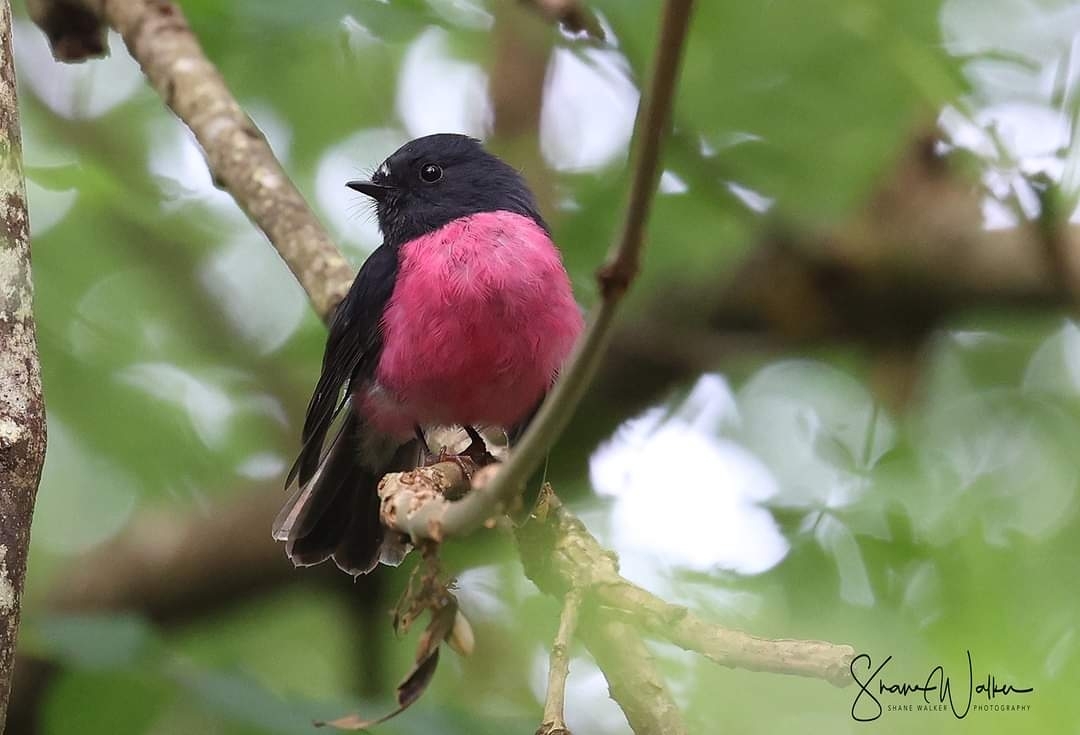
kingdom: Animalia
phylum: Chordata
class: Aves
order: Passeriformes
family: Petroicidae
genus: Petroica
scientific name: Petroica rodinogaster
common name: Pink robin
